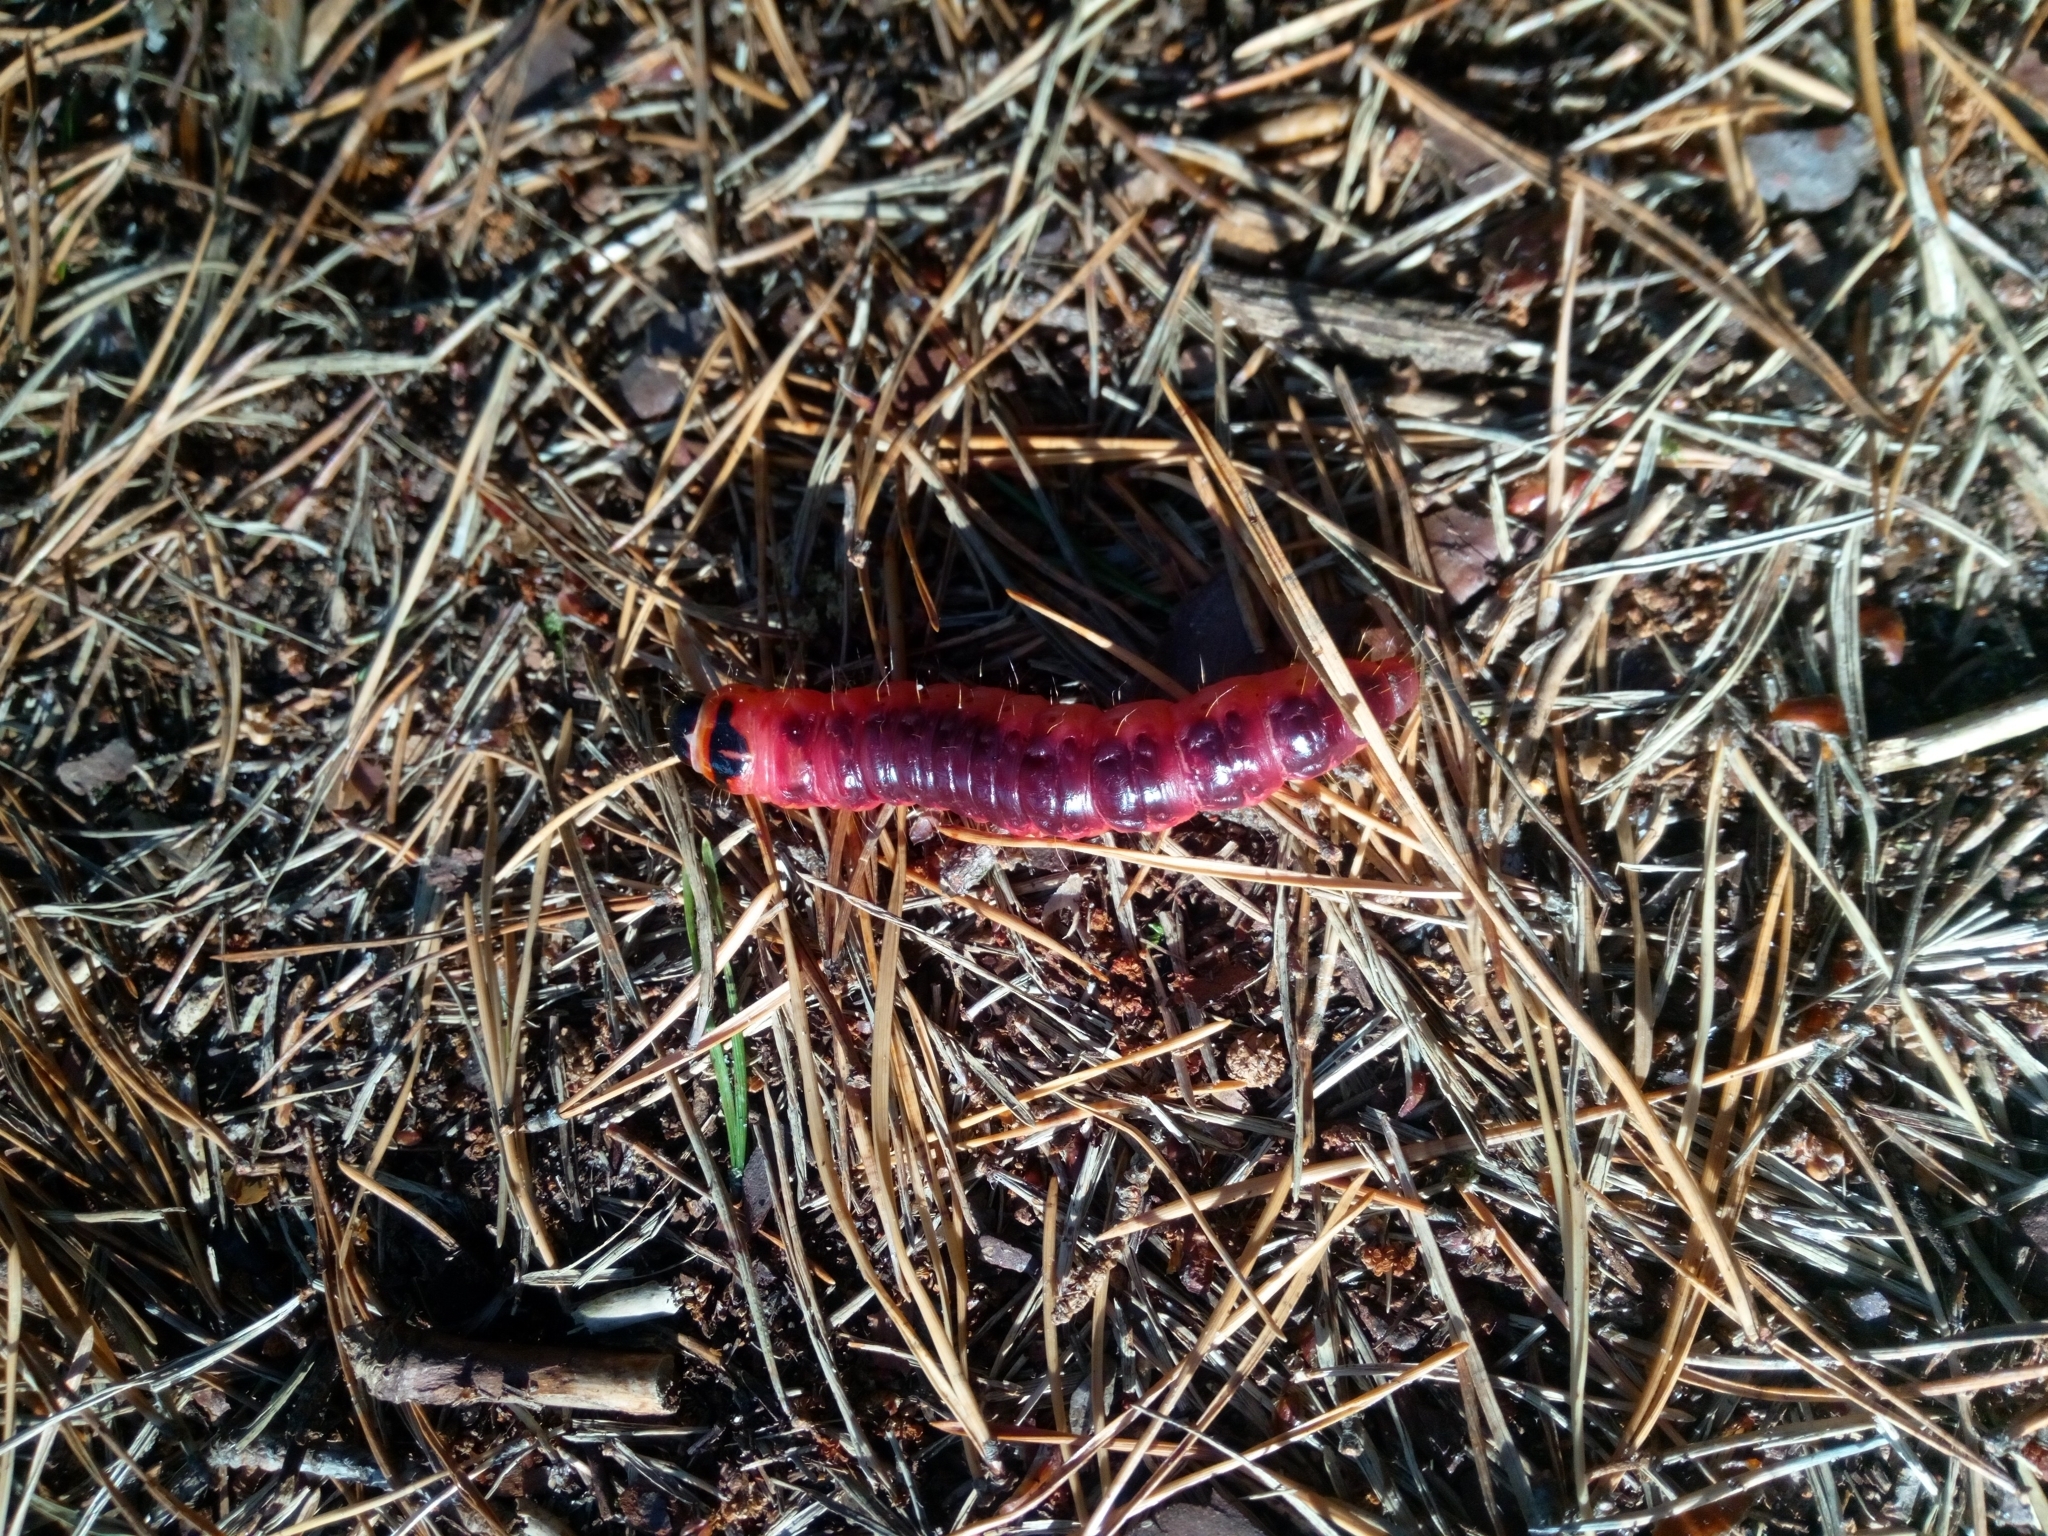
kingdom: Animalia
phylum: Arthropoda
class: Insecta
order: Lepidoptera
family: Cossidae
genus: Cossus
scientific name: Cossus cossus
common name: Goat moth
